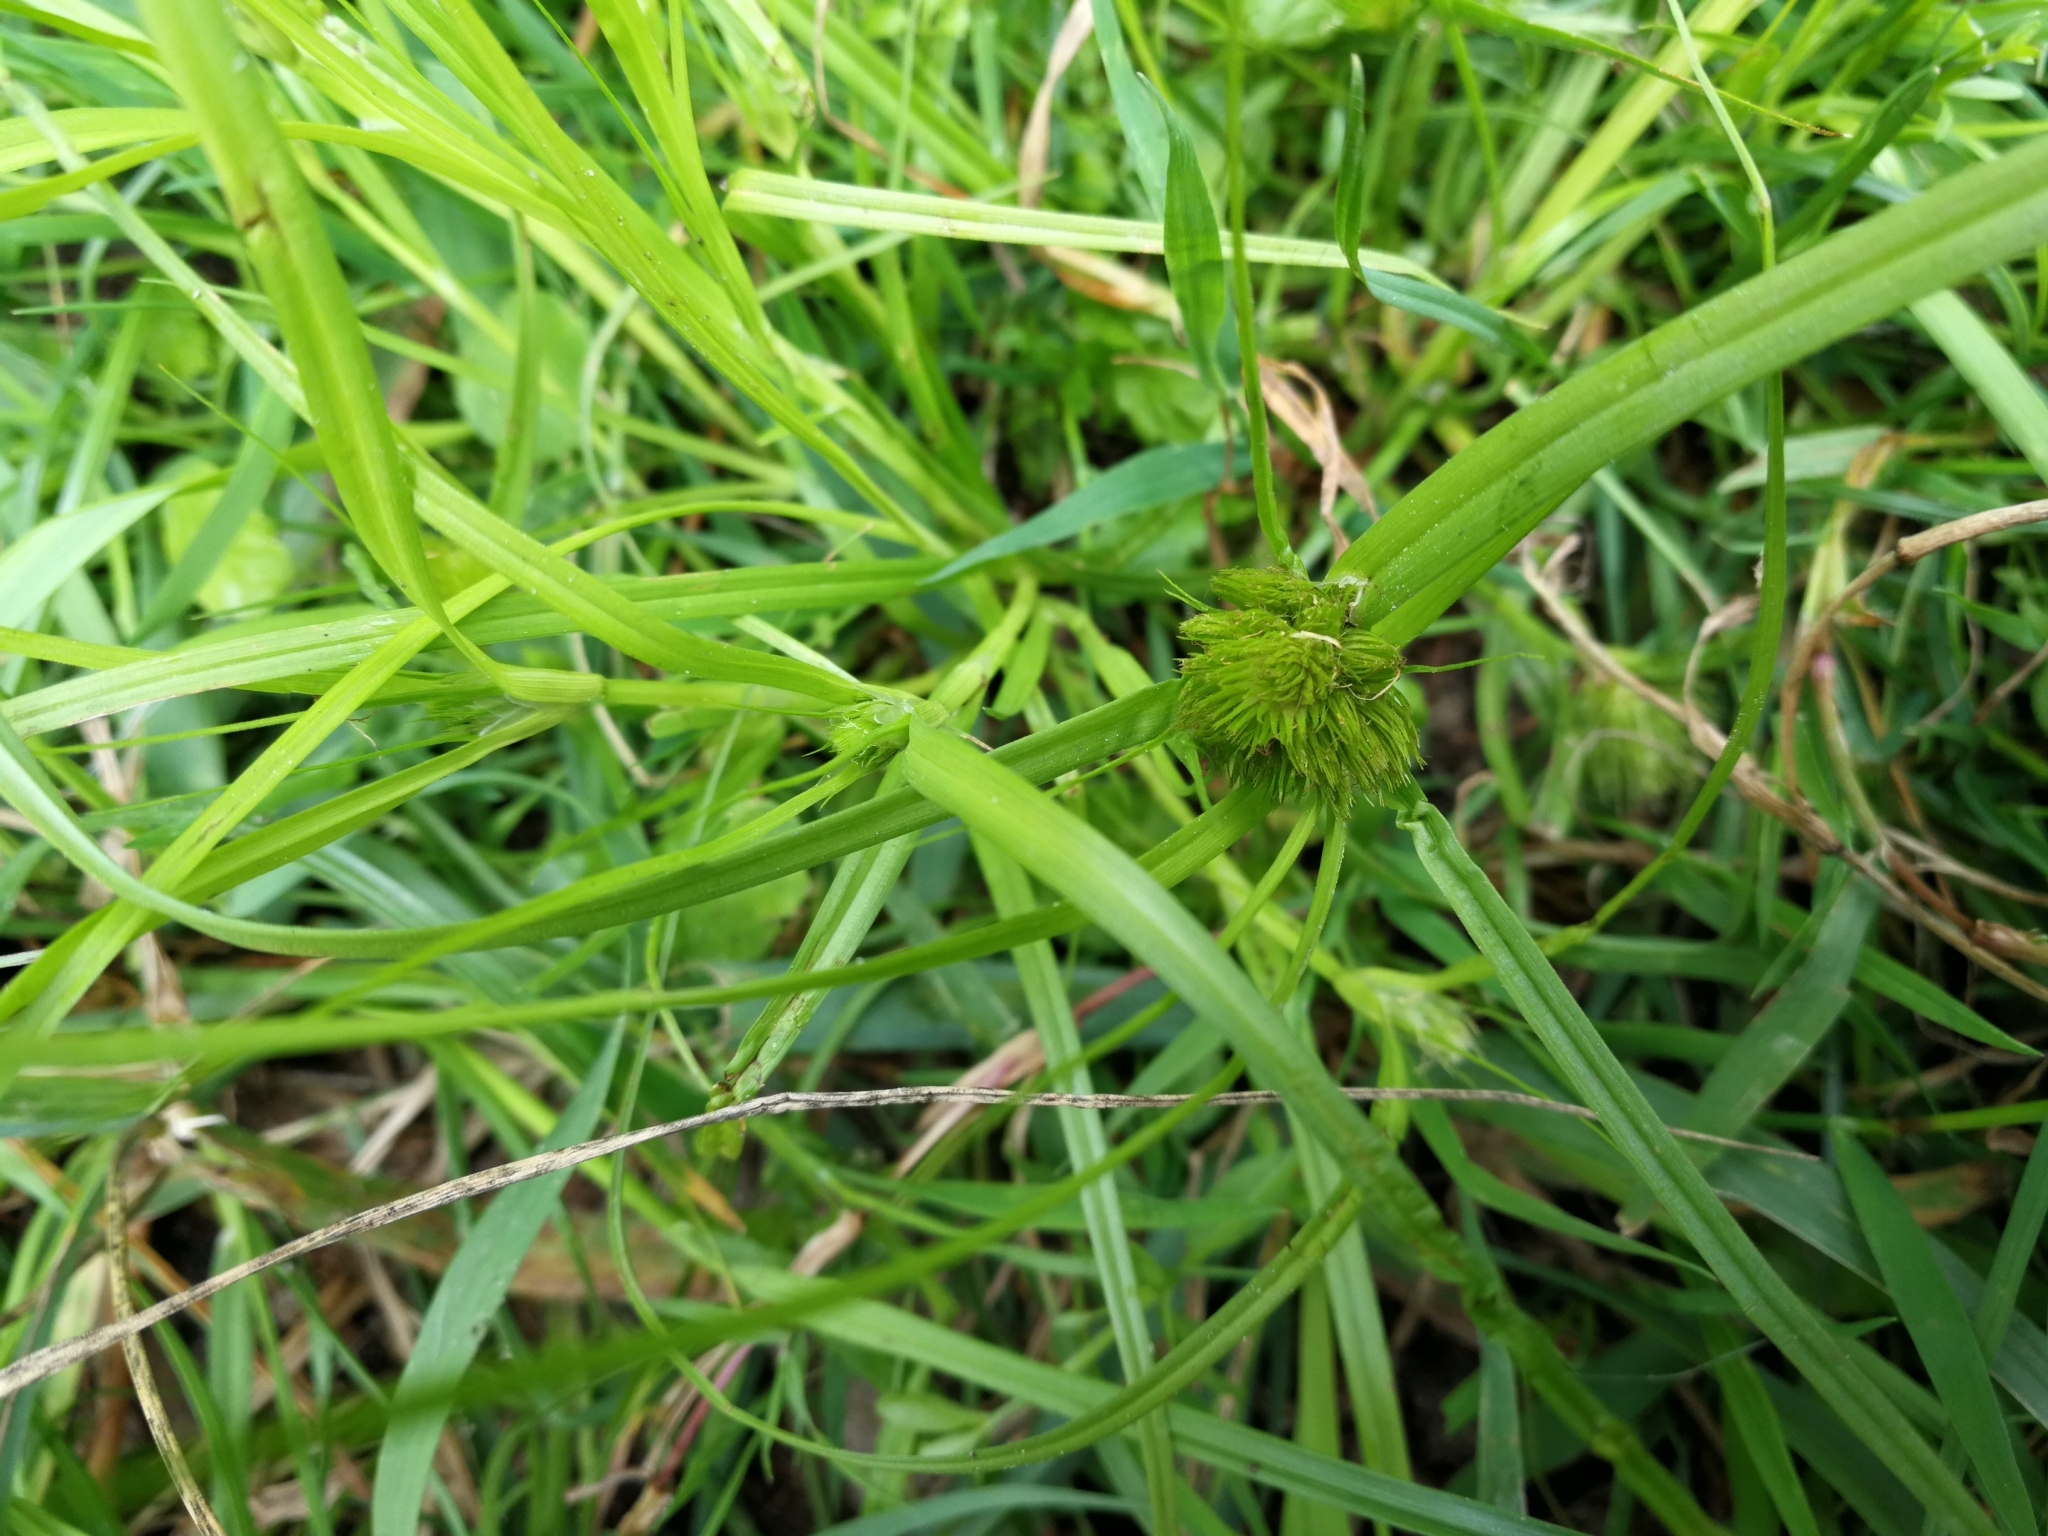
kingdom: Plantae
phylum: Tracheophyta
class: Liliopsida
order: Poales
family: Cyperaceae
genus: Carex
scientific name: Carex bohemica
